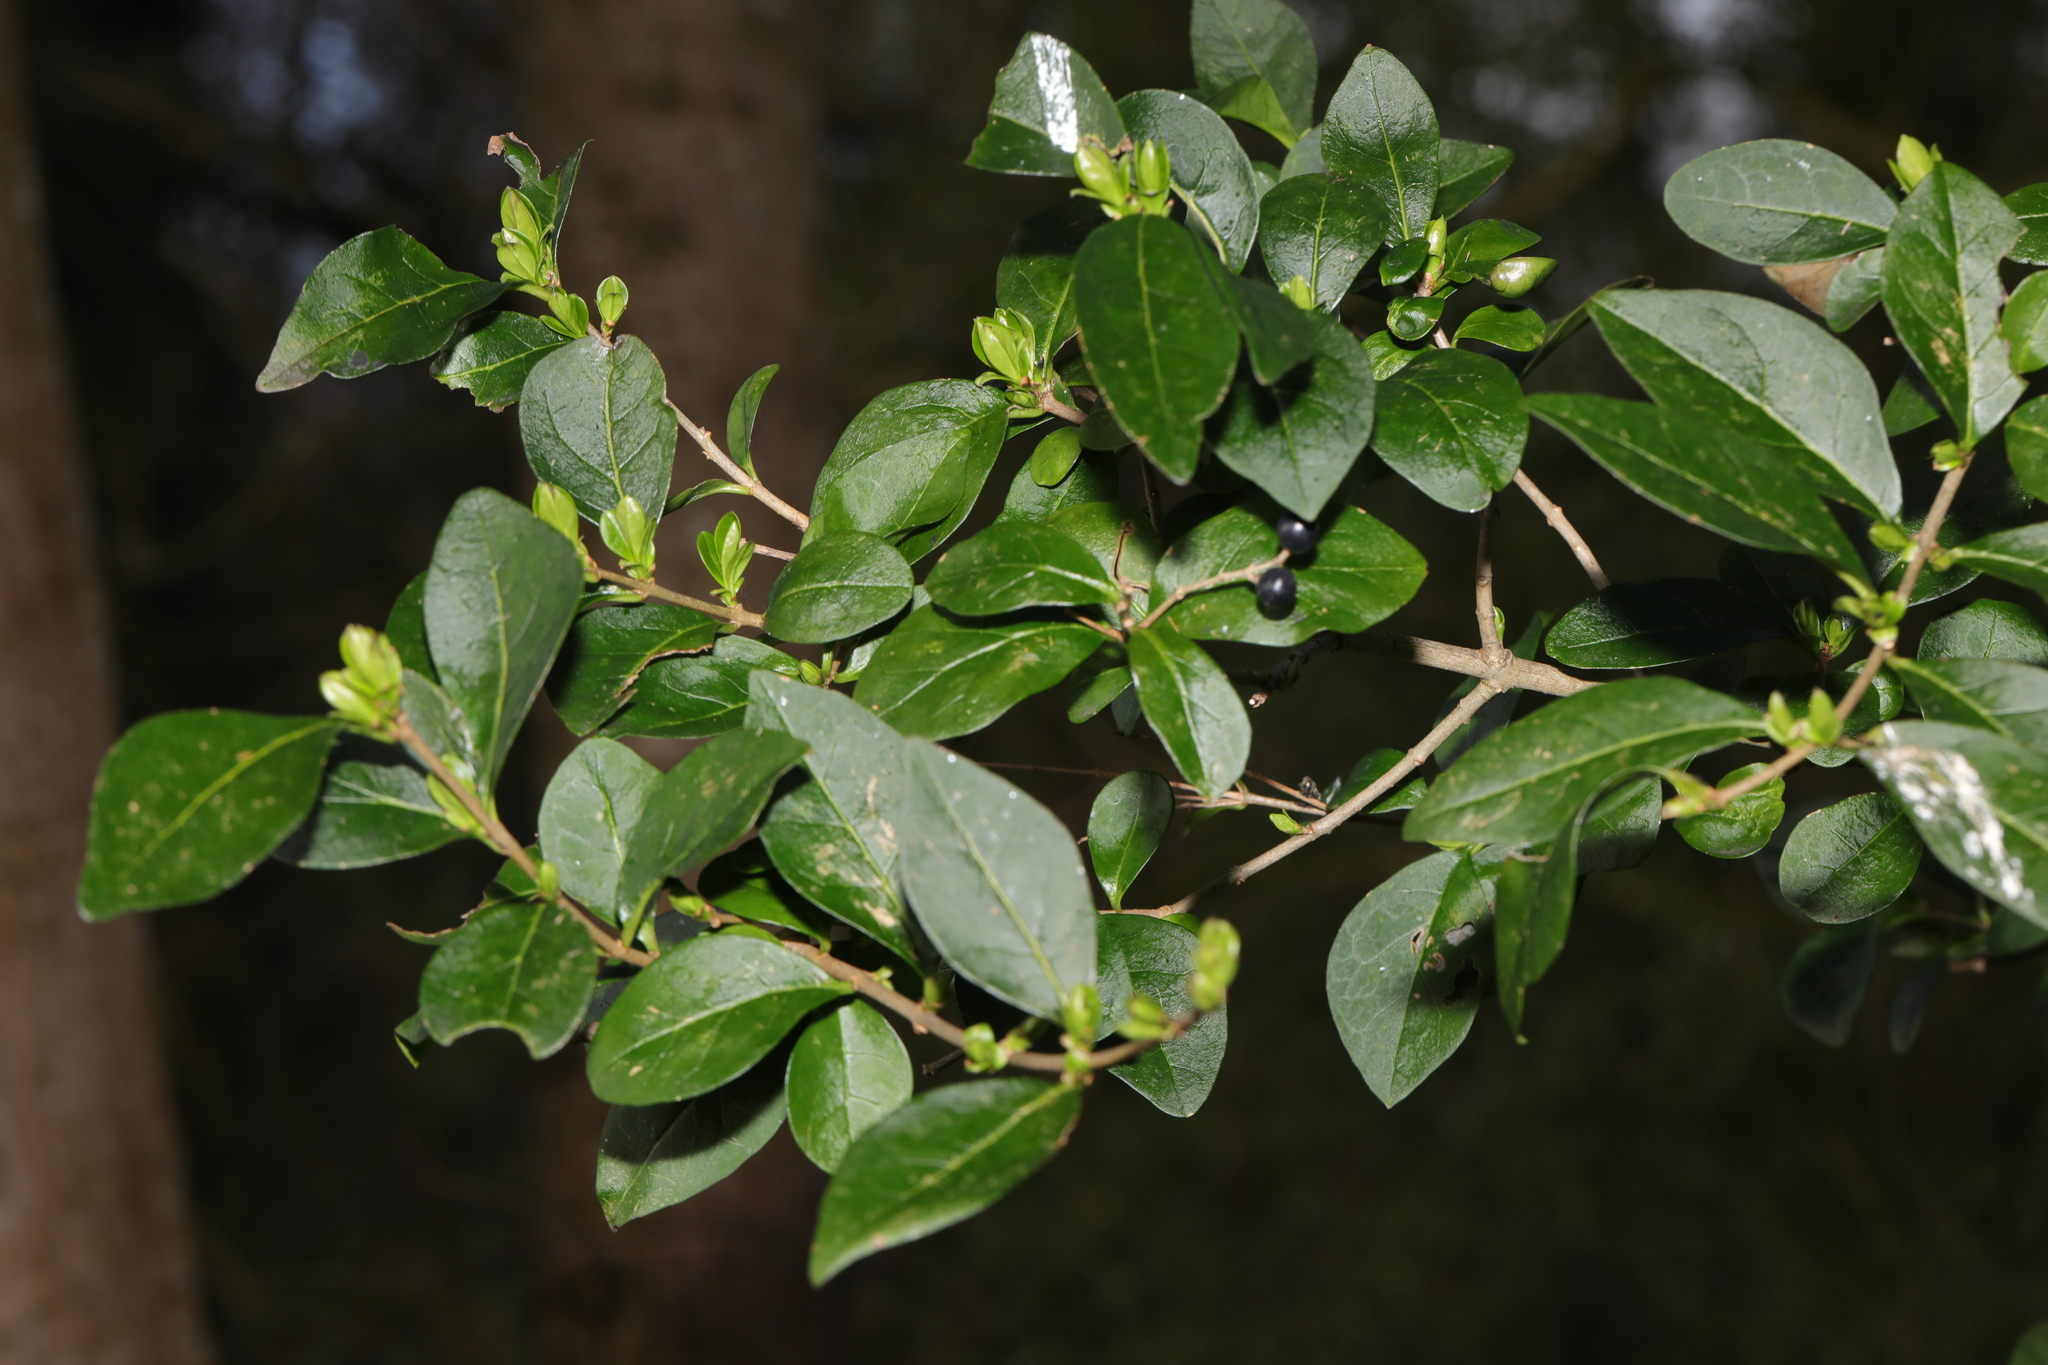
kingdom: Plantae
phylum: Tracheophyta
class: Magnoliopsida
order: Lamiales
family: Oleaceae
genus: Ligustrum
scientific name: Ligustrum ovalifolium
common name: California privet
